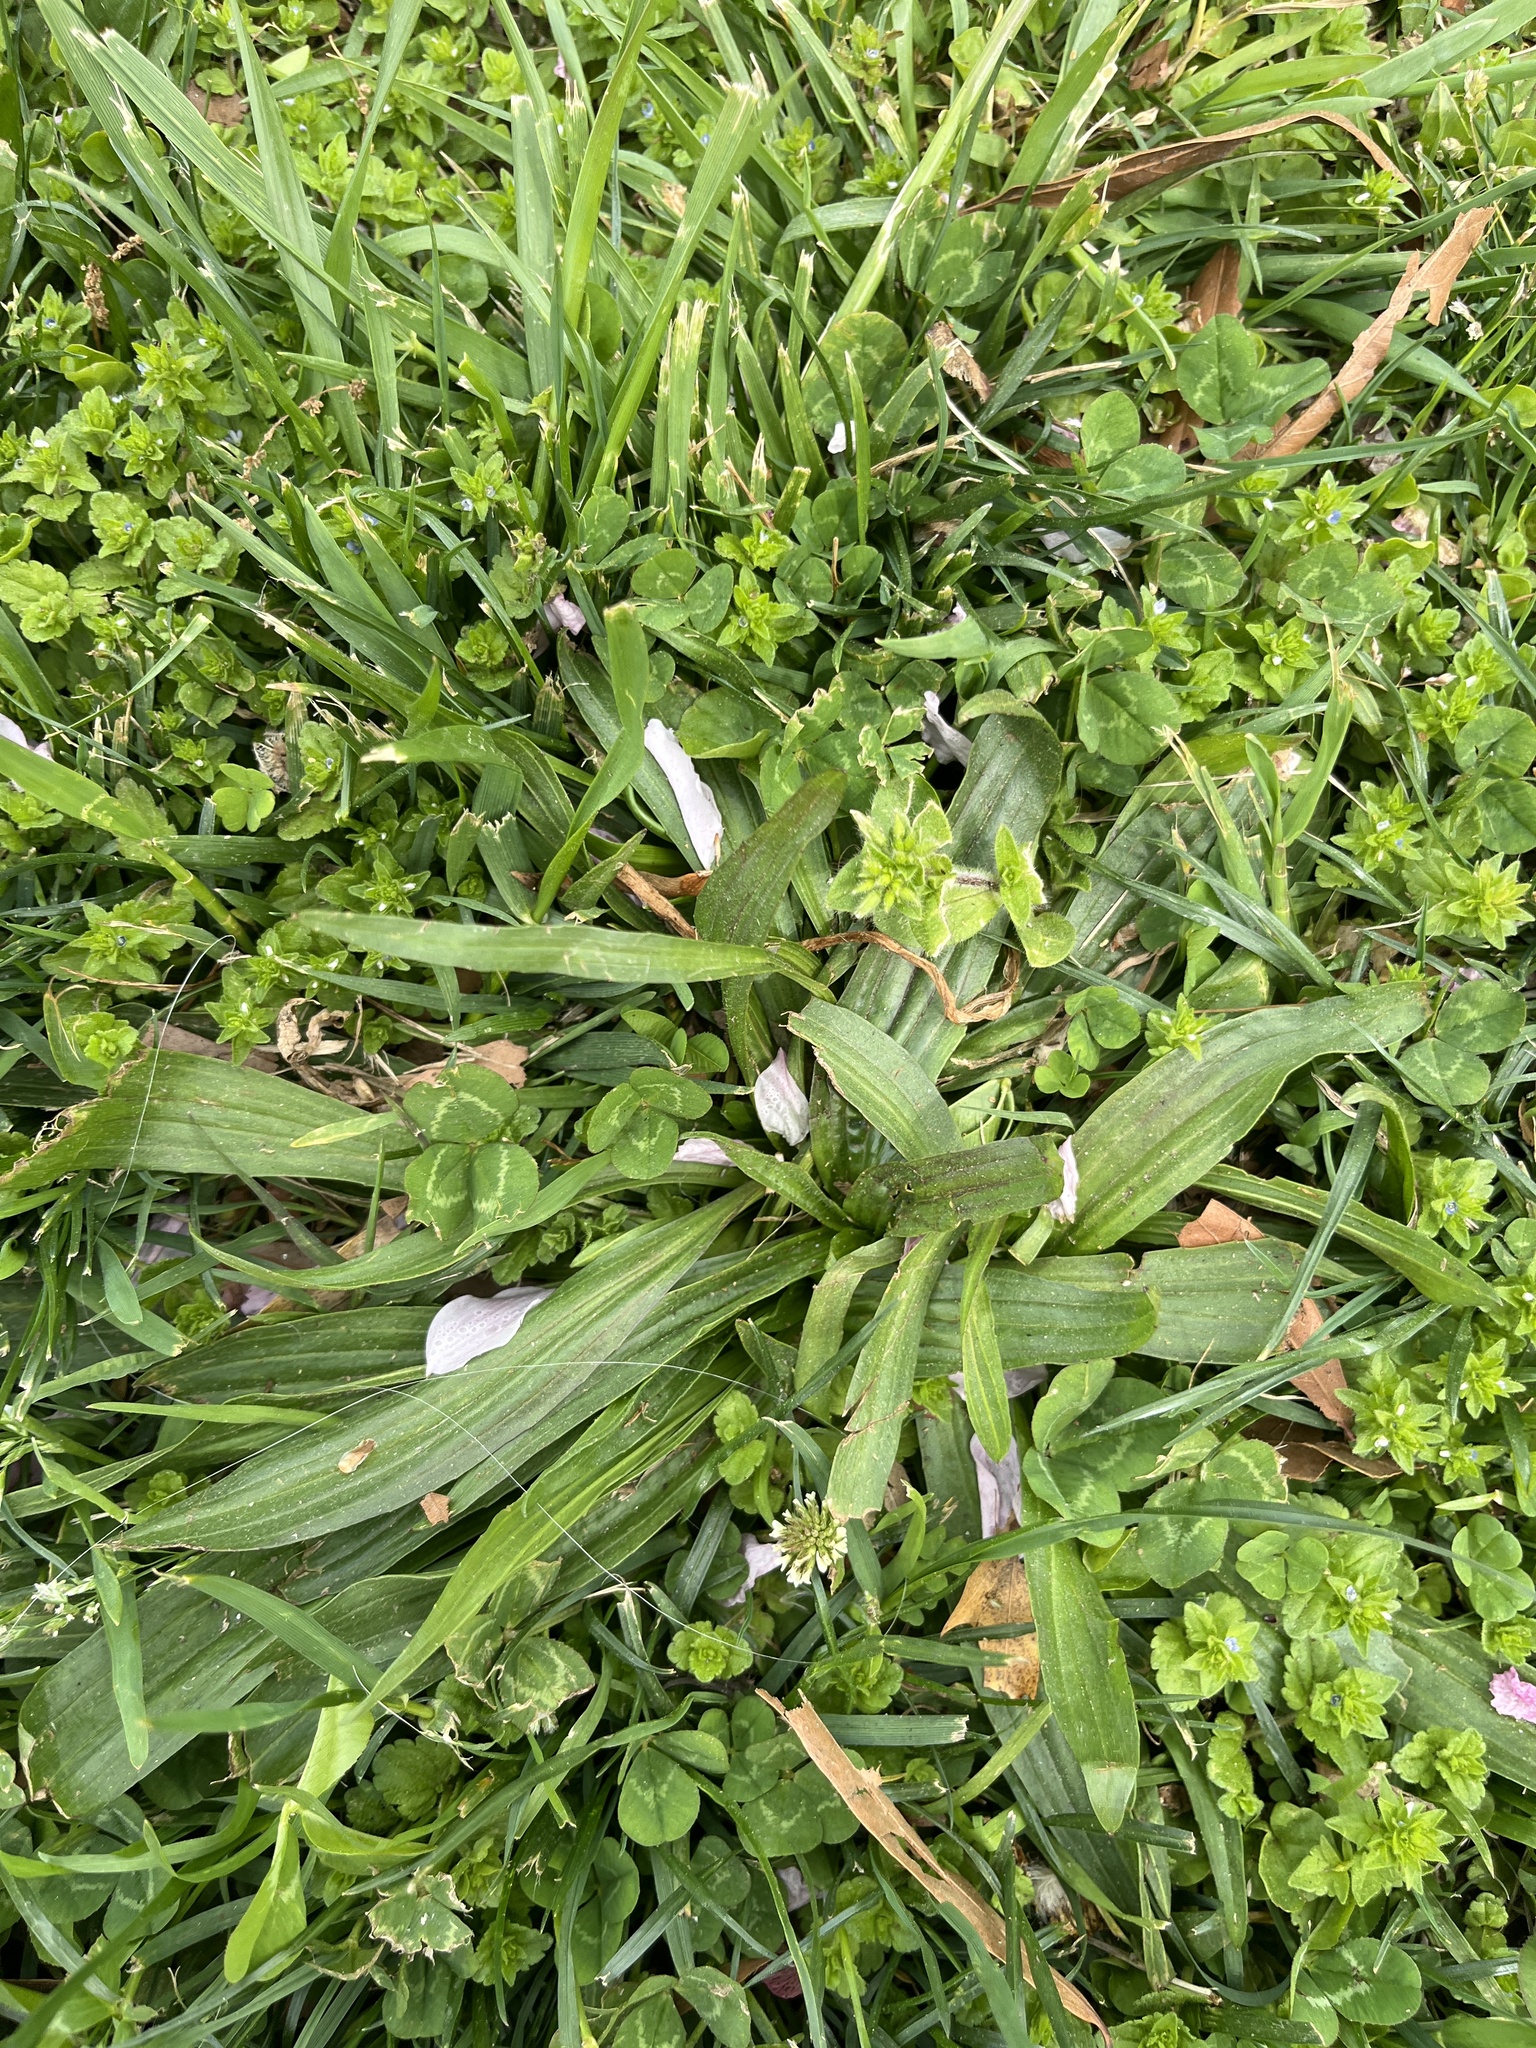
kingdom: Plantae
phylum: Tracheophyta
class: Magnoliopsida
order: Lamiales
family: Plantaginaceae
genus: Plantago
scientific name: Plantago lanceolata
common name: Ribwort plantain
